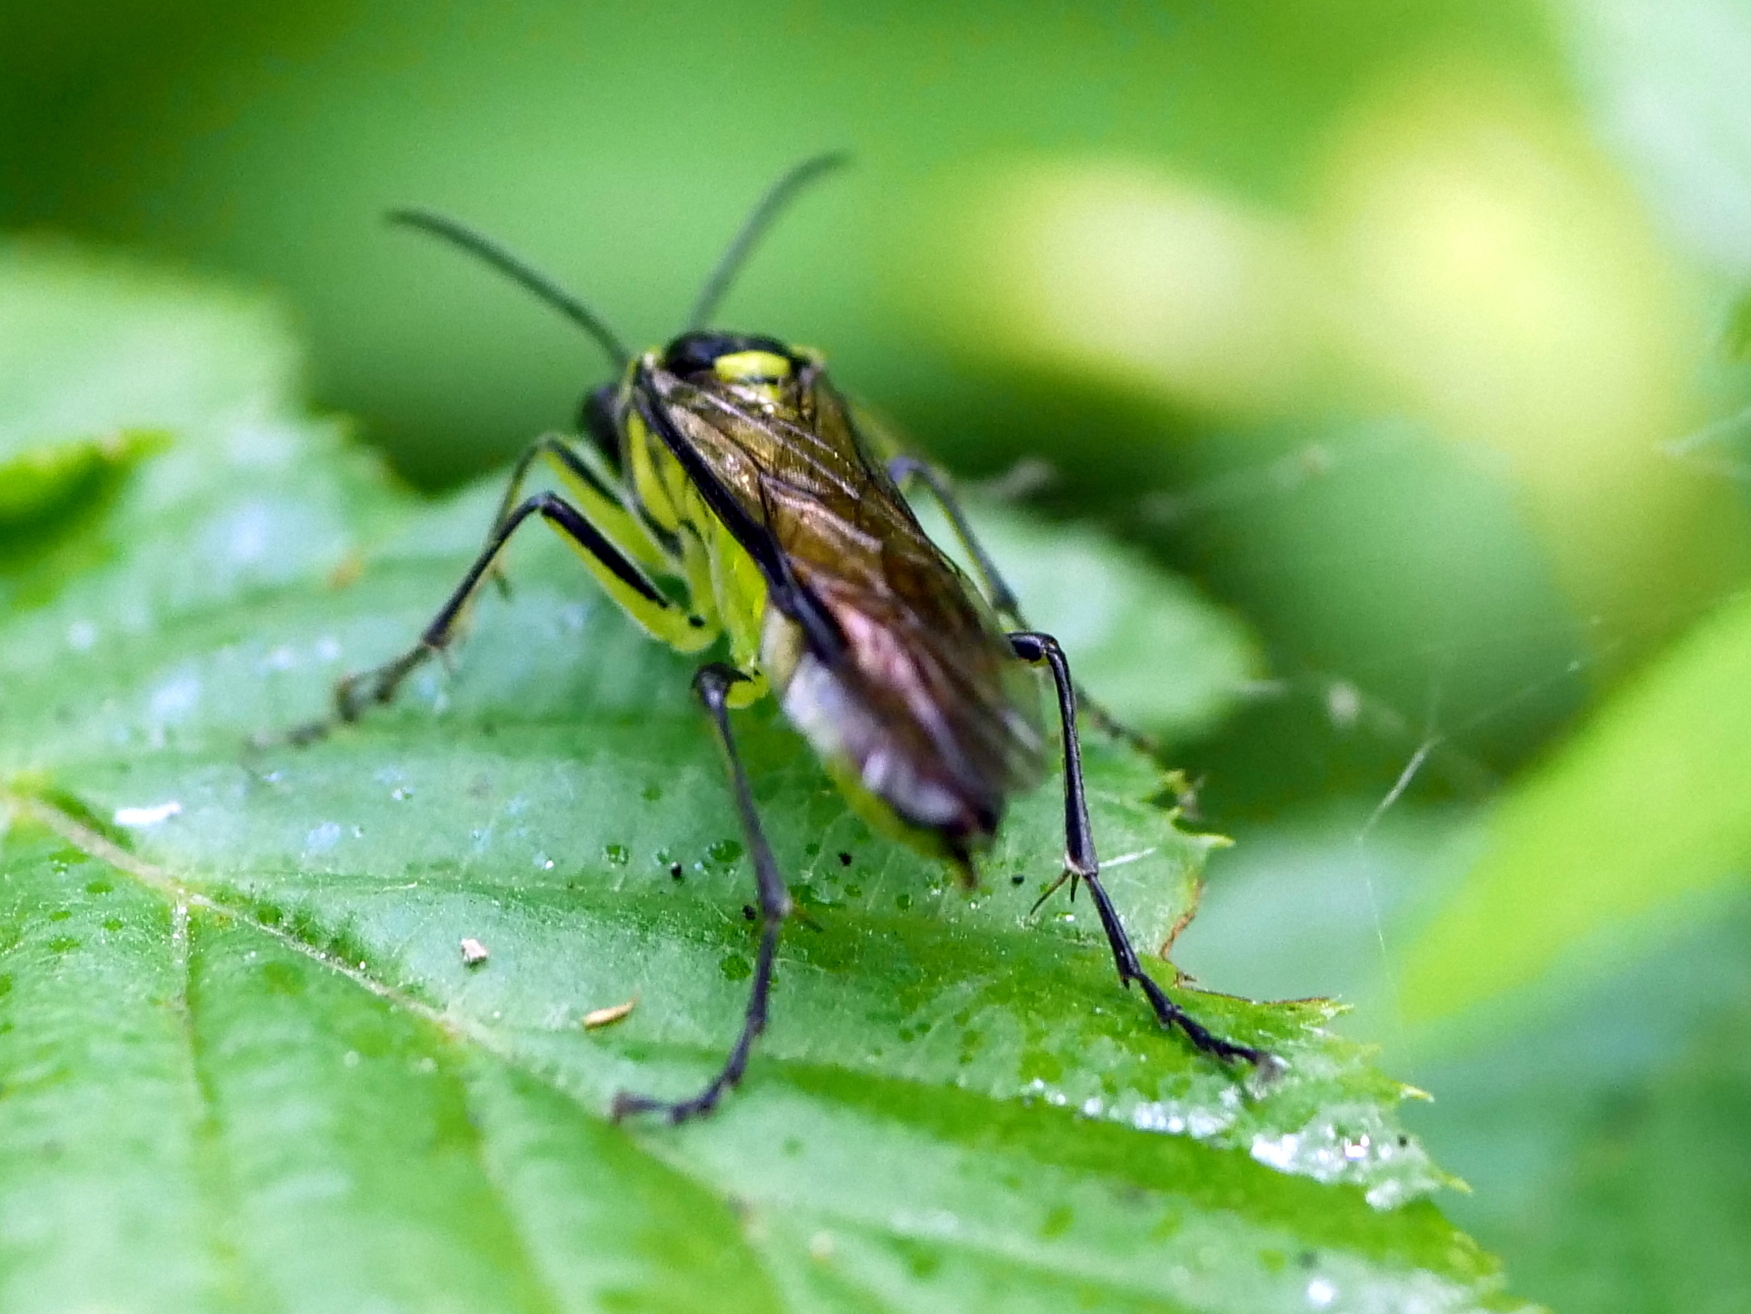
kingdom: Animalia
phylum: Arthropoda
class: Insecta
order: Hymenoptera
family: Tenthredinidae
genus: Tenthredo
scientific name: Tenthredo mesomela
